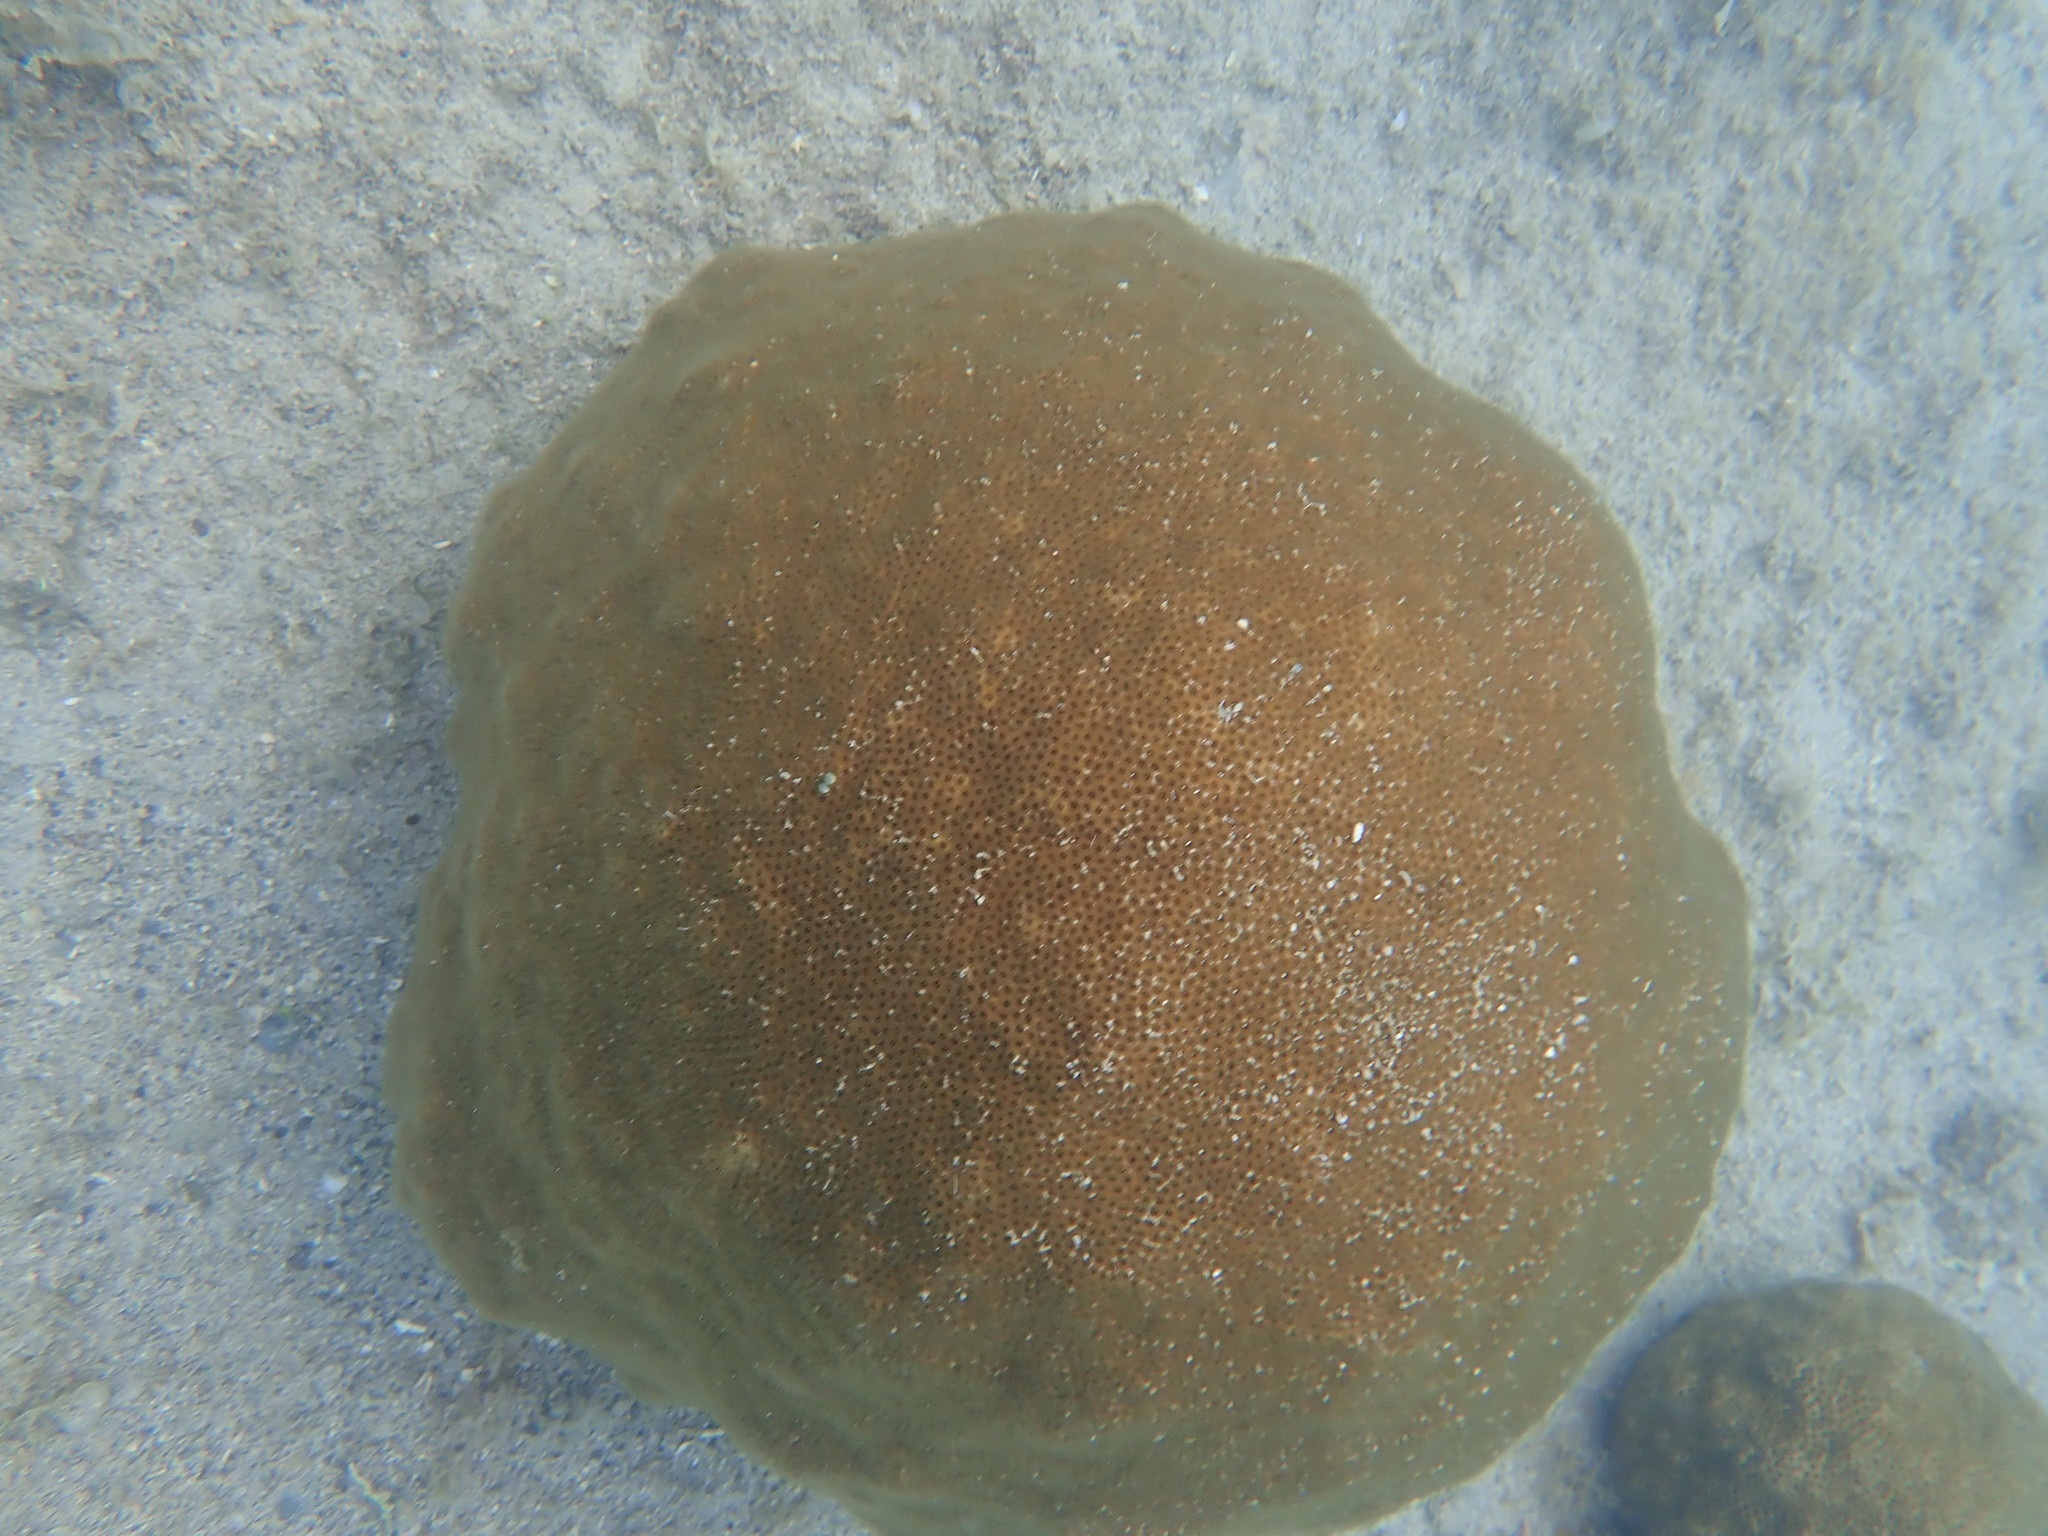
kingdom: Animalia
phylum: Cnidaria
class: Anthozoa
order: Scleractinia
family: Faviidae
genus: Solenastrea
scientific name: Solenastrea bournoni
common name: Smooth star coral
